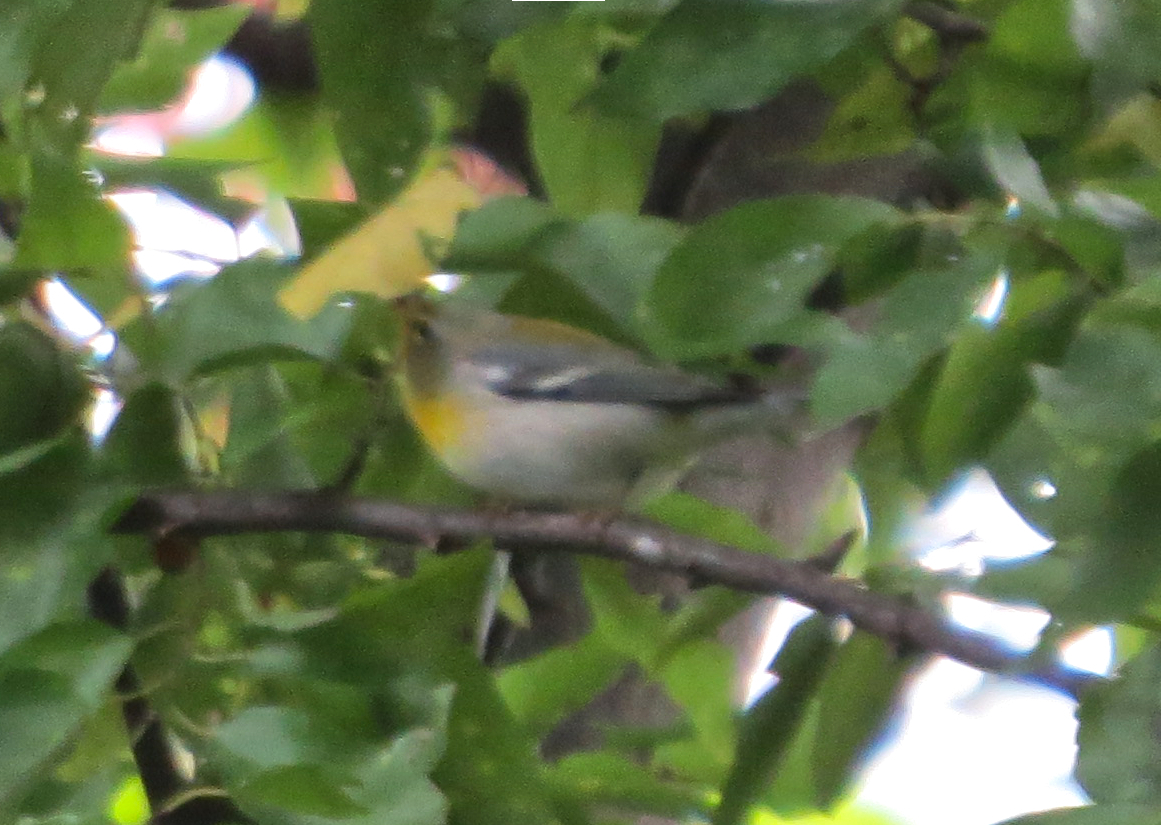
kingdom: Animalia
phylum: Chordata
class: Aves
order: Passeriformes
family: Parulidae
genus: Setophaga
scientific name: Setophaga americana
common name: Northern parula
